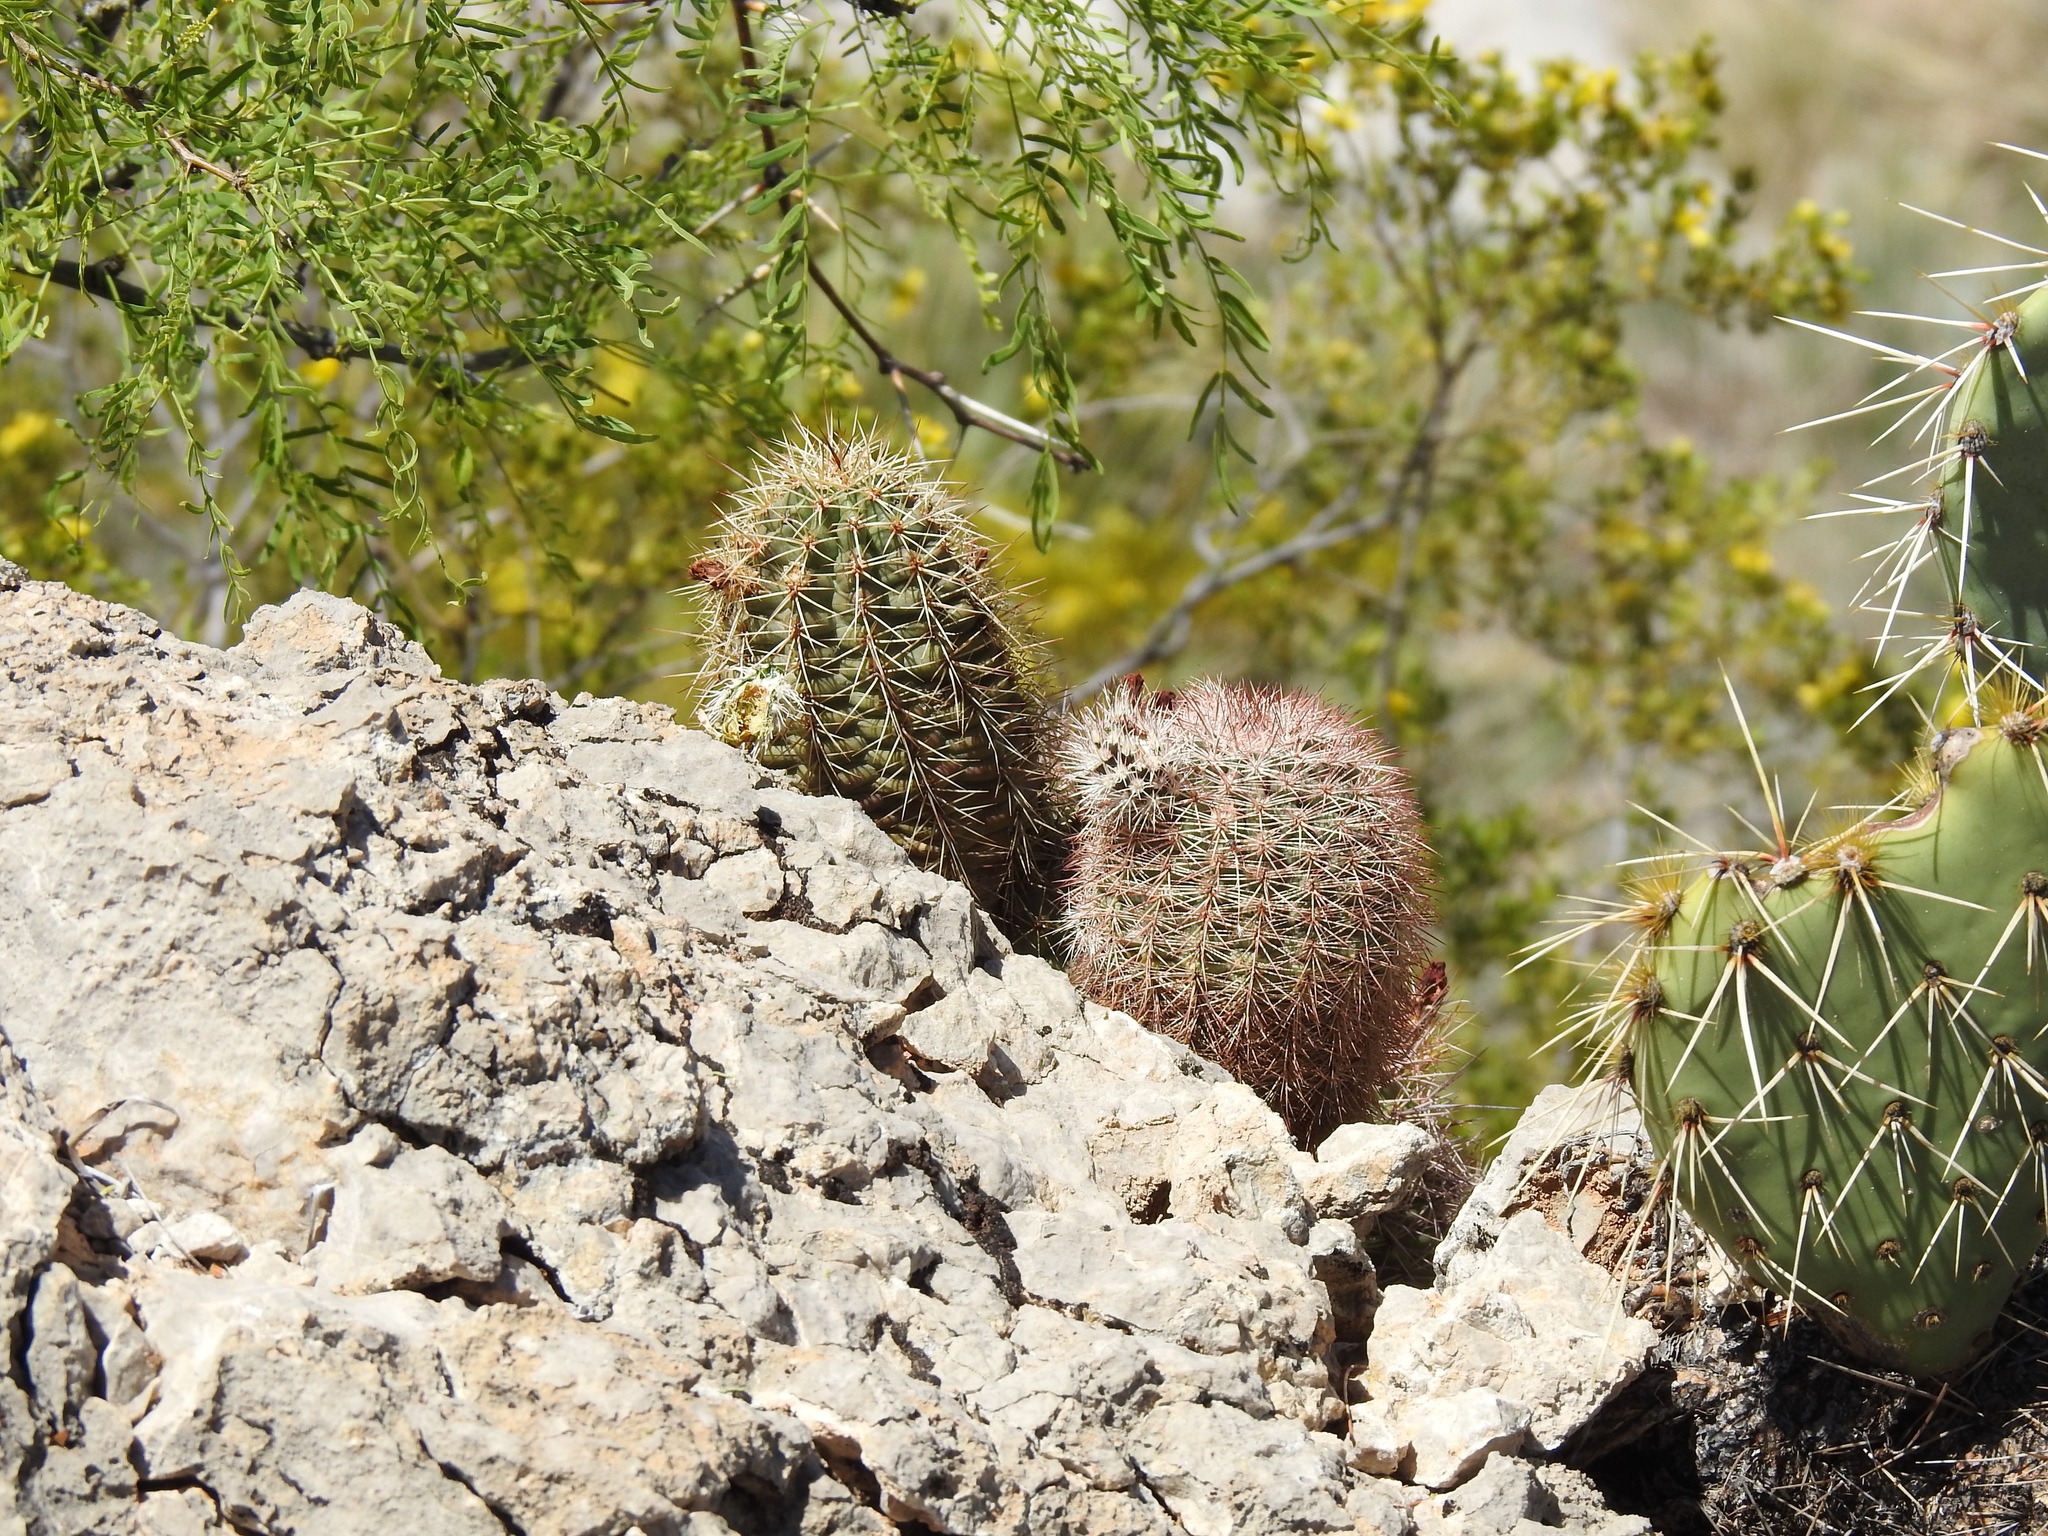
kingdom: Plantae
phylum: Tracheophyta
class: Magnoliopsida
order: Caryophyllales
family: Cactaceae
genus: Echinocereus
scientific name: Echinocereus roetteri
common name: Lloyd's hedgehog cactus
